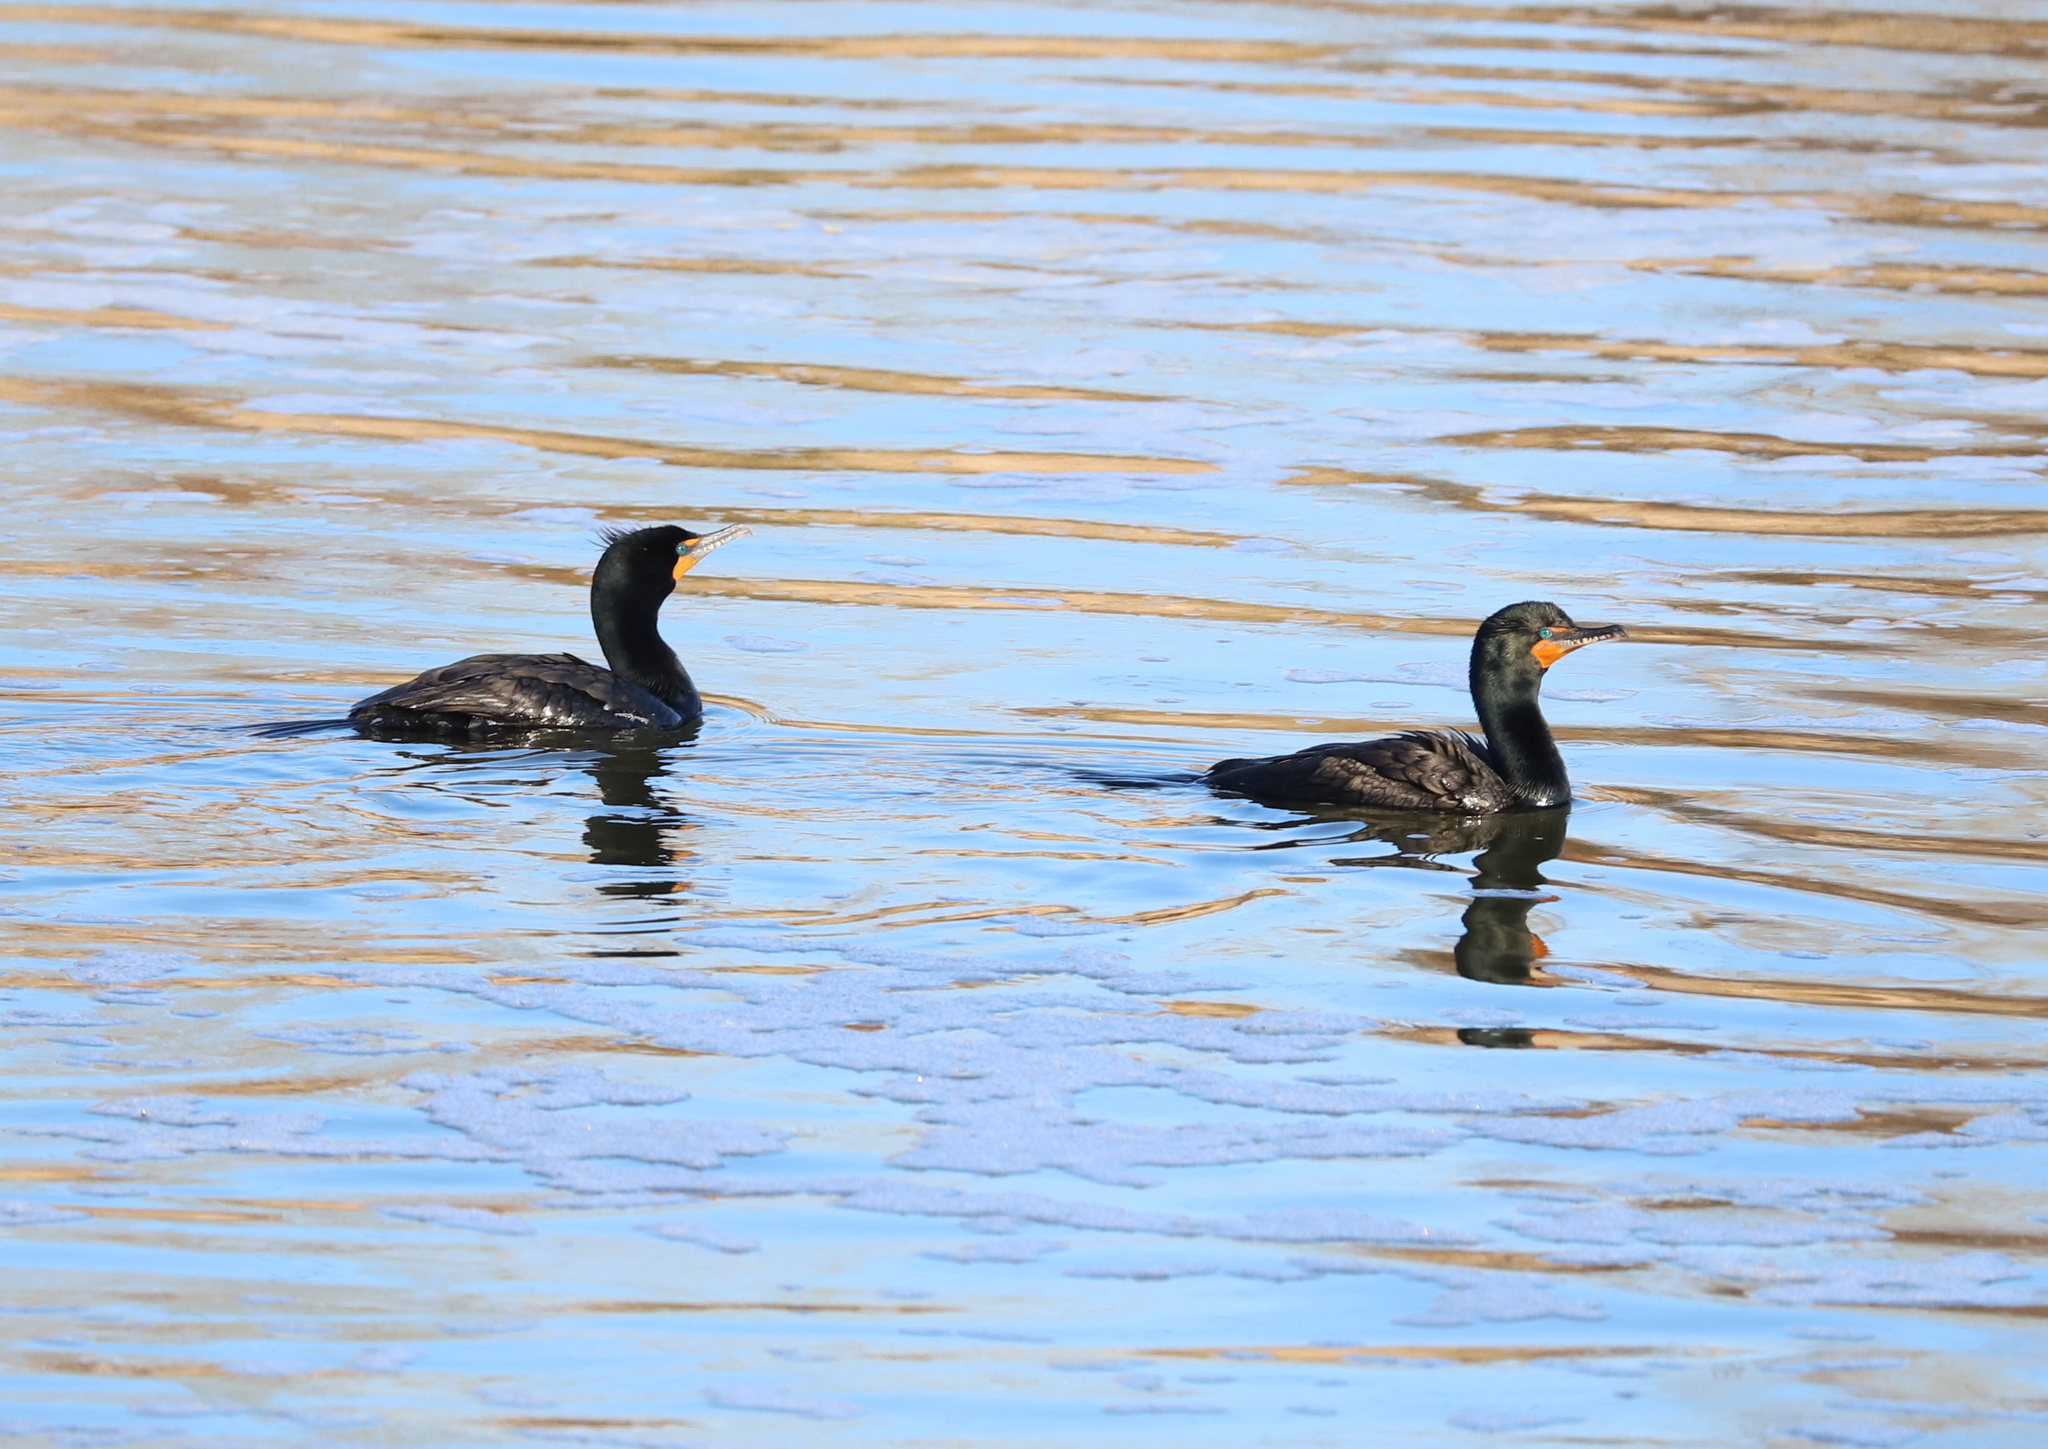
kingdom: Animalia
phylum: Chordata
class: Aves
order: Suliformes
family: Phalacrocoracidae
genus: Phalacrocorax
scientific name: Phalacrocorax auritus
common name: Double-crested cormorant
